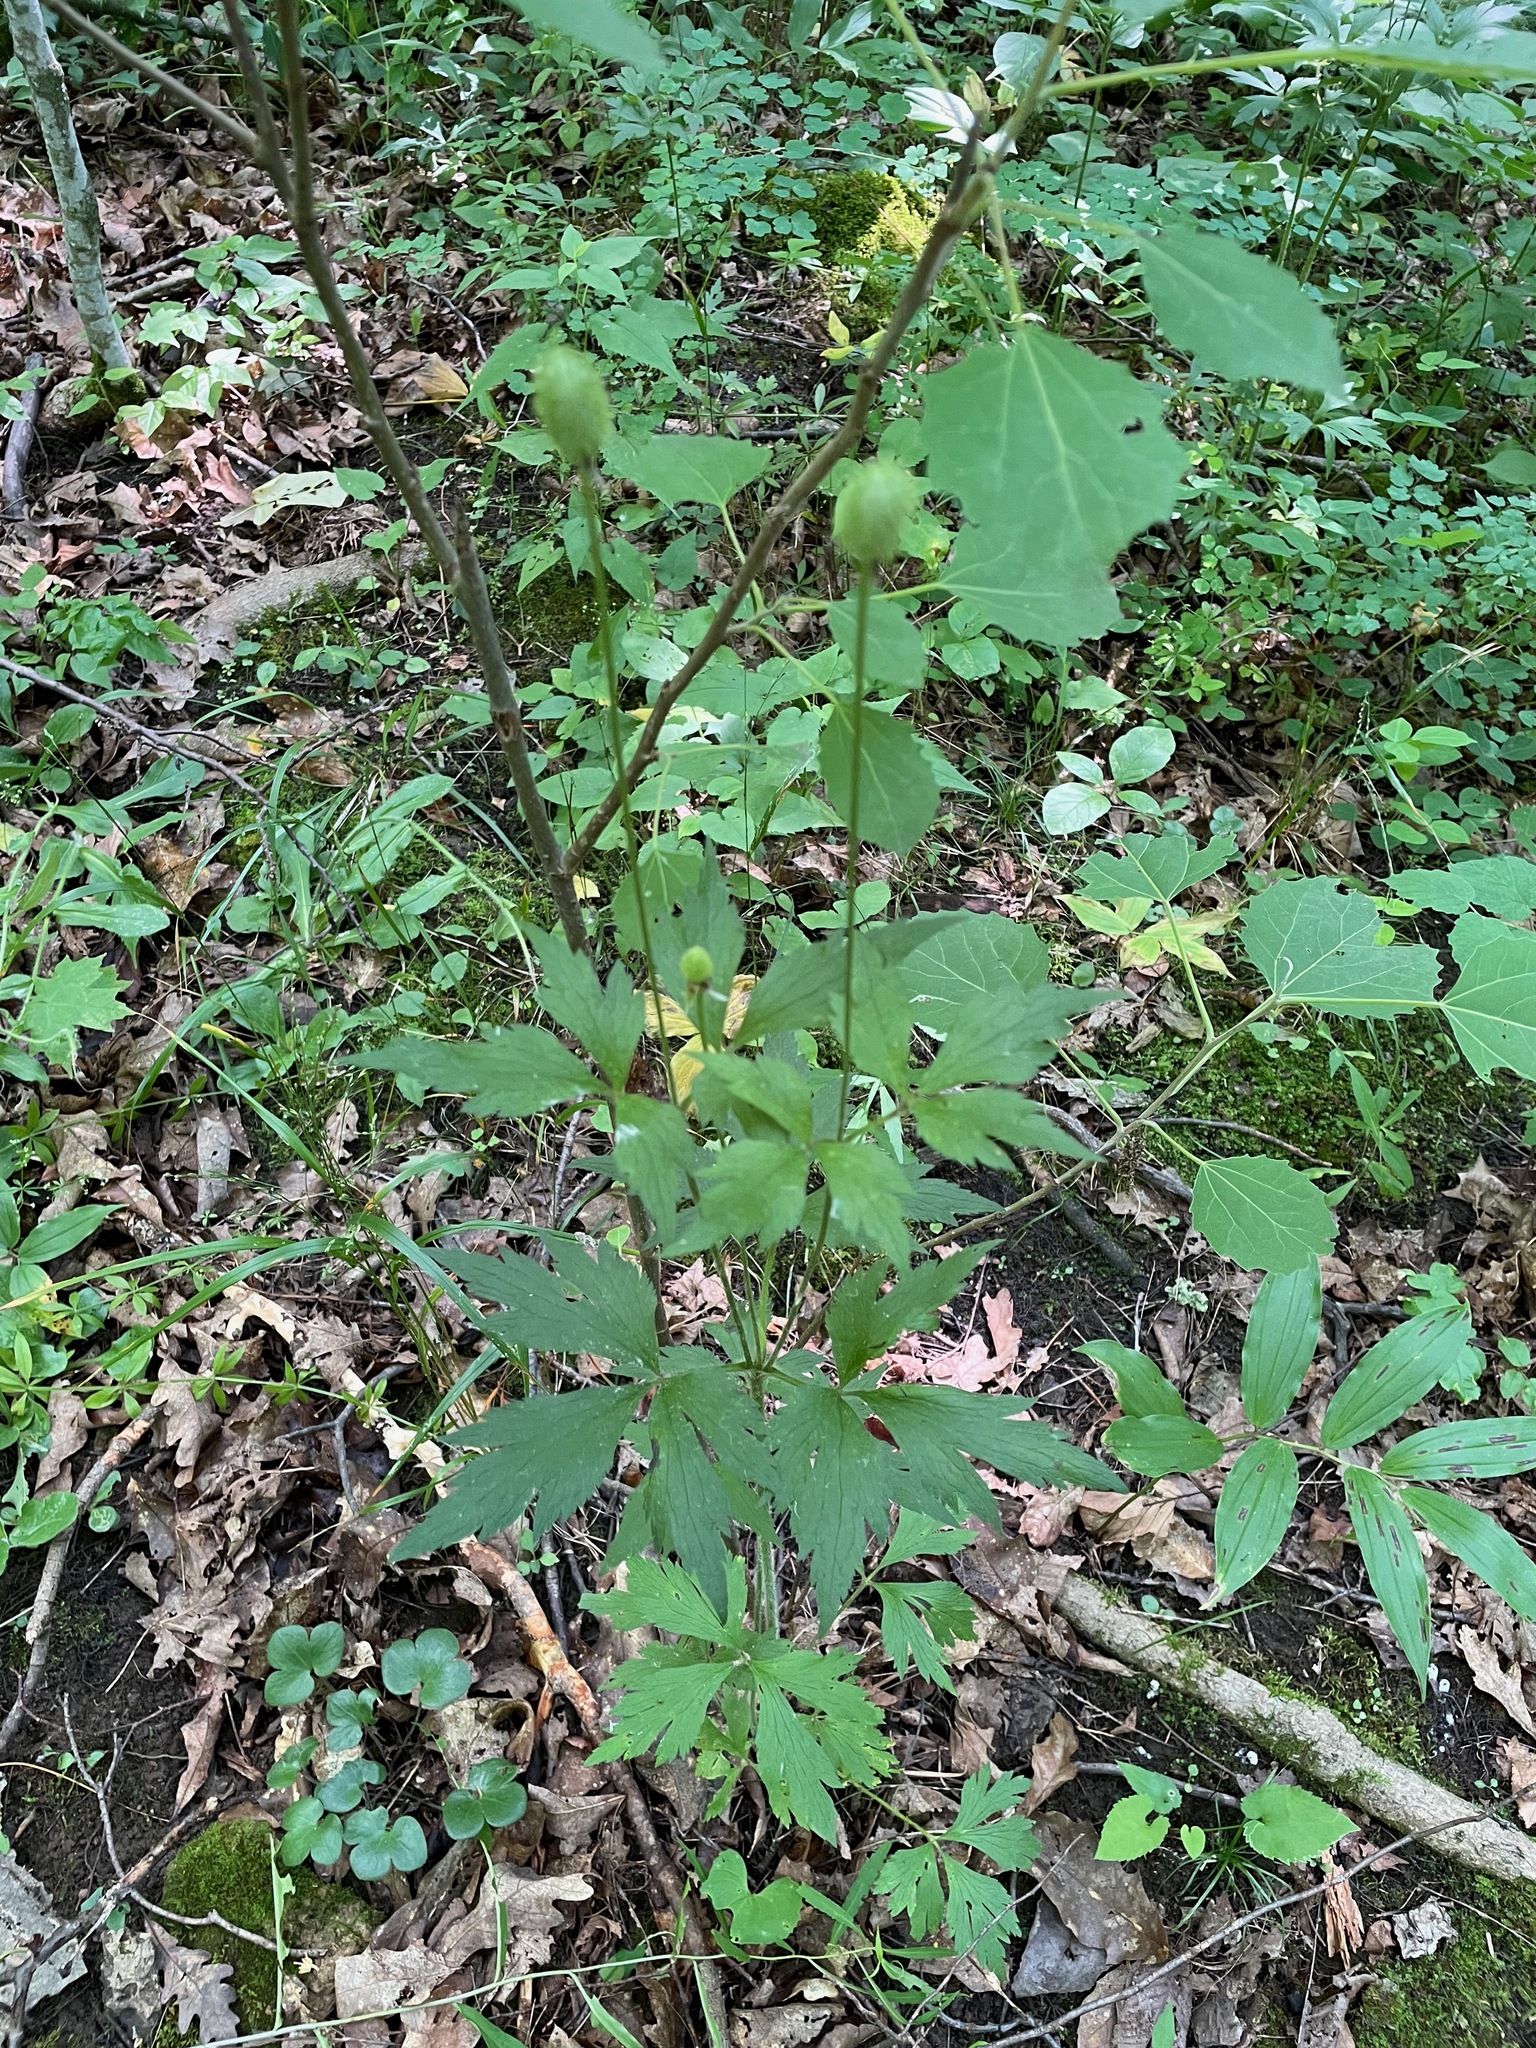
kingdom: Plantae
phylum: Tracheophyta
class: Magnoliopsida
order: Ranunculales
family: Ranunculaceae
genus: Anemone
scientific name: Anemone virginiana
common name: Tall anemone
